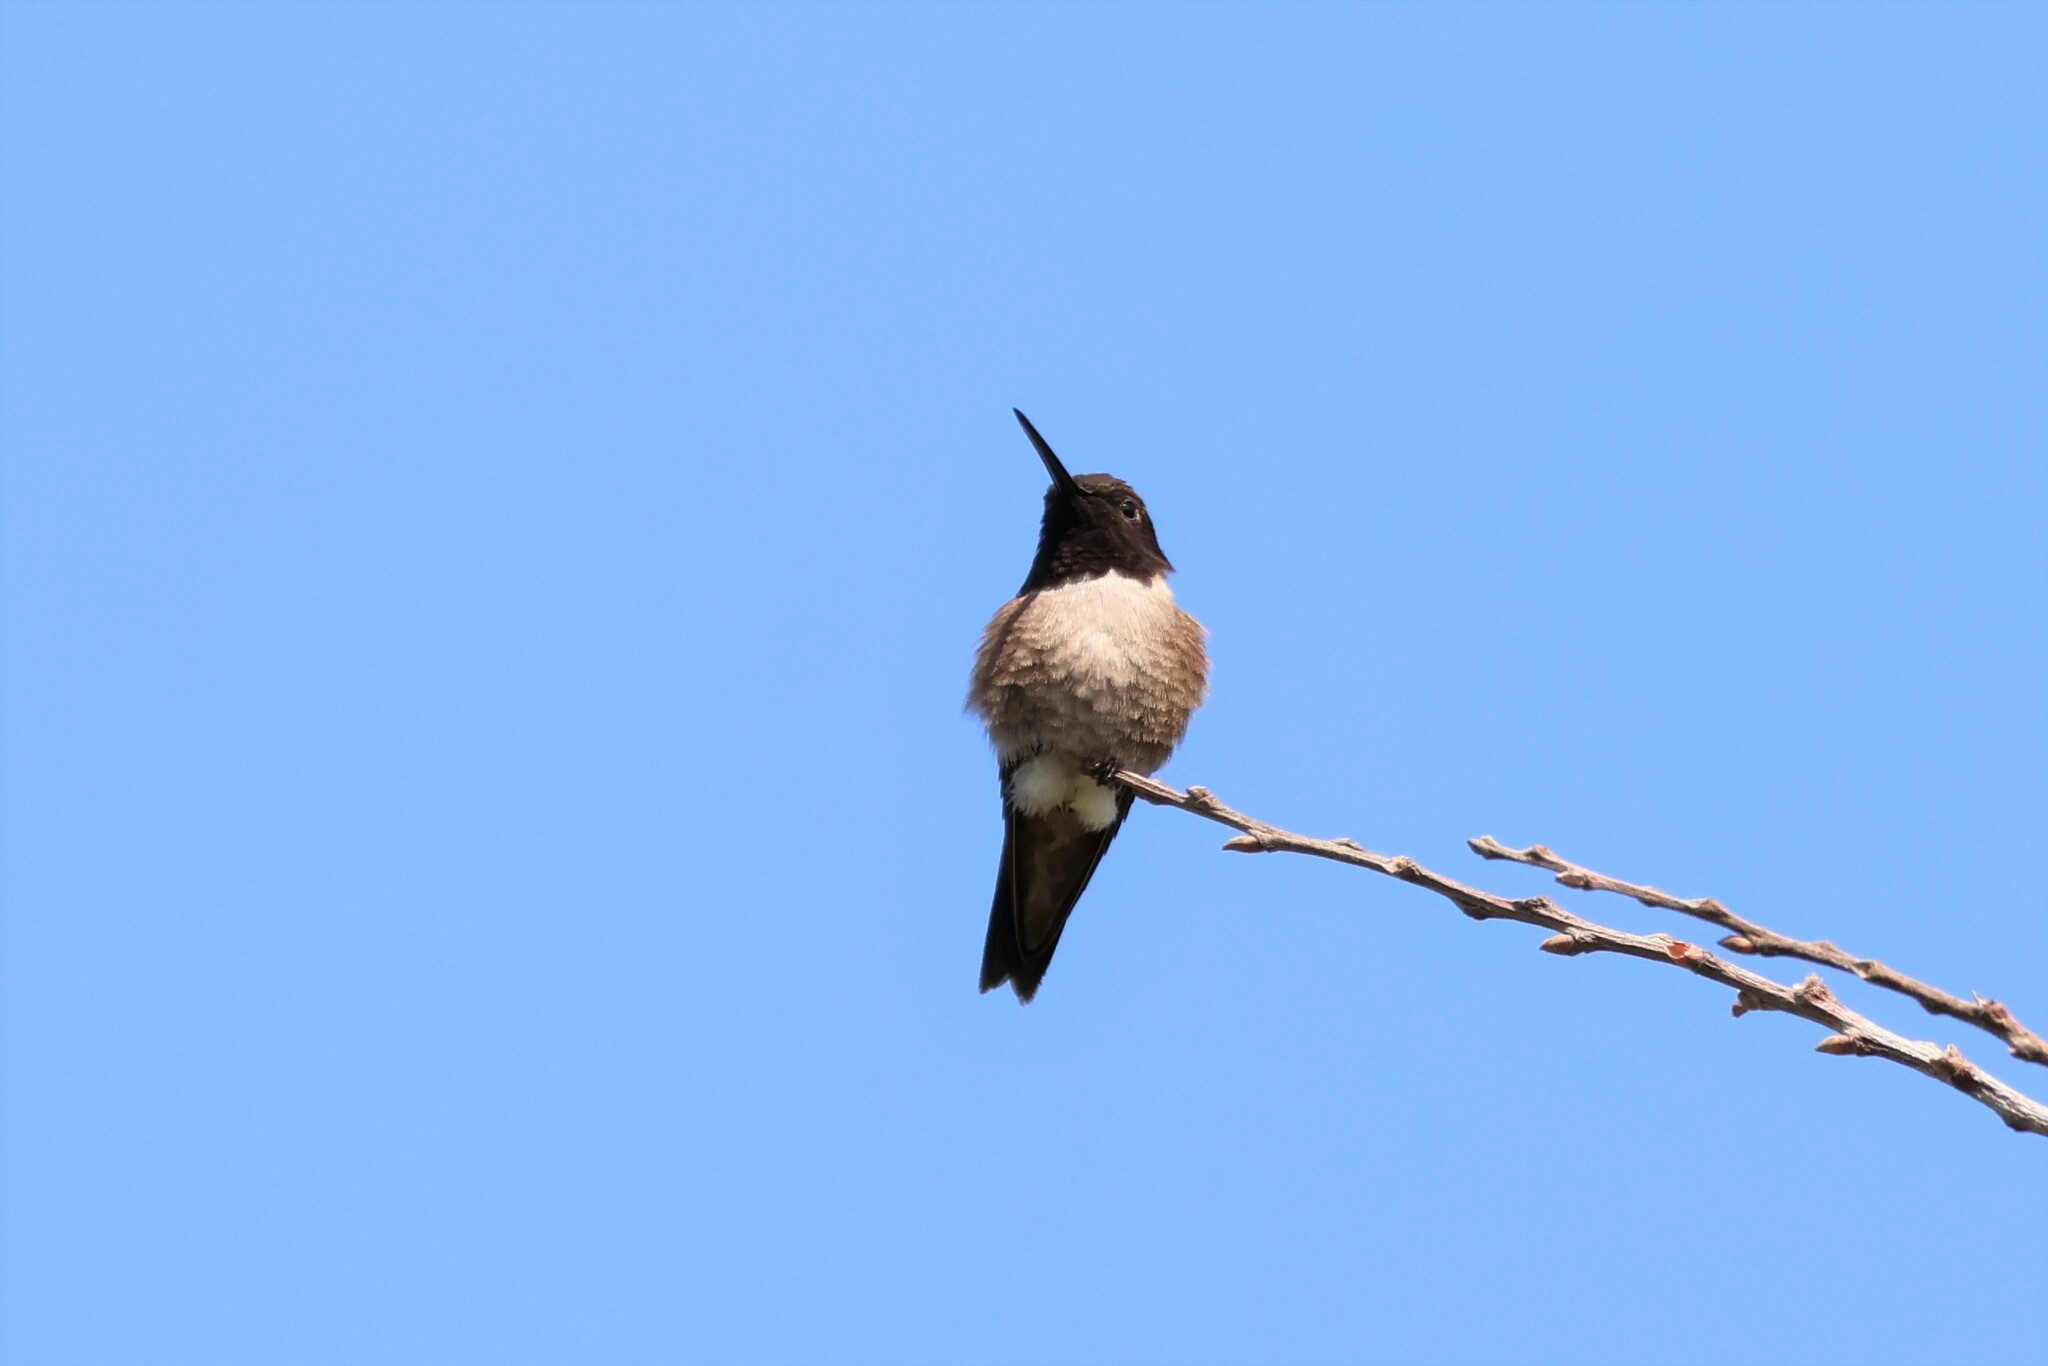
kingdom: Animalia
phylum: Chordata
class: Aves
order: Apodiformes
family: Trochilidae
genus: Archilochus
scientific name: Archilochus alexandri
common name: Black-chinned hummingbird
